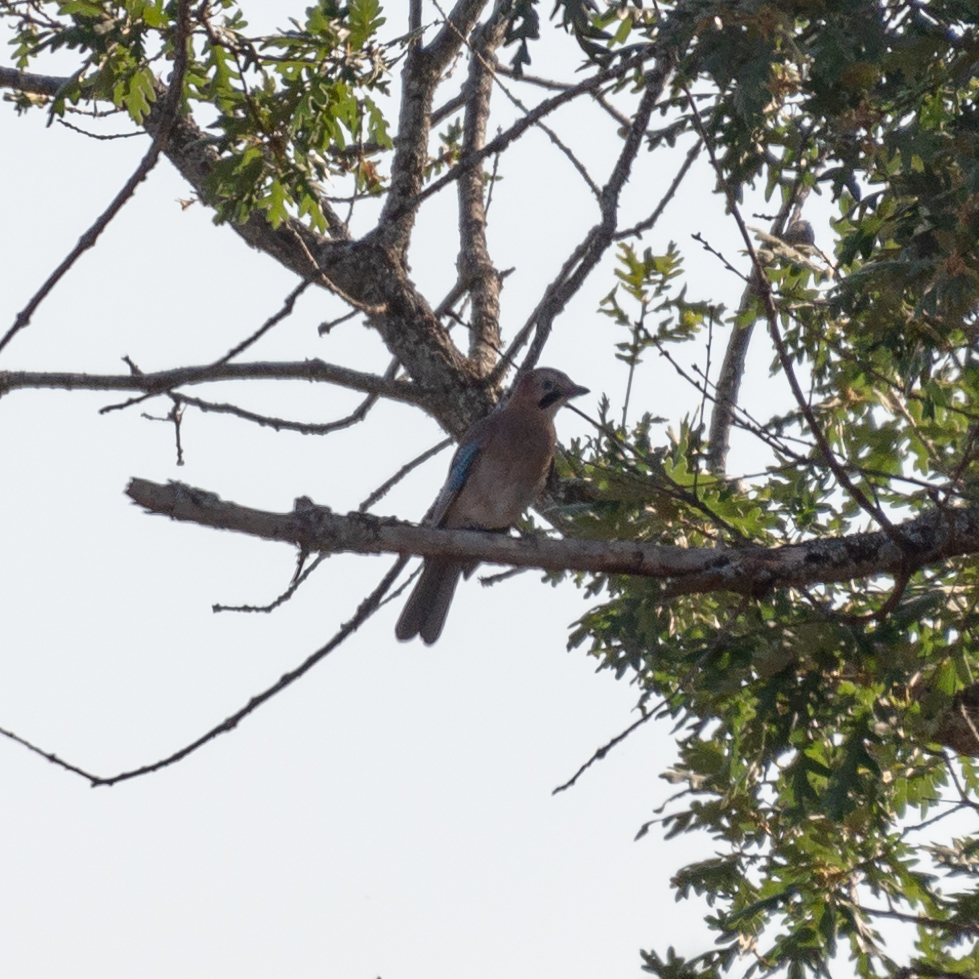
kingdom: Animalia
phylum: Chordata
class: Aves
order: Passeriformes
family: Corvidae
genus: Garrulus
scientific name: Garrulus glandarius
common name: Eurasian jay
